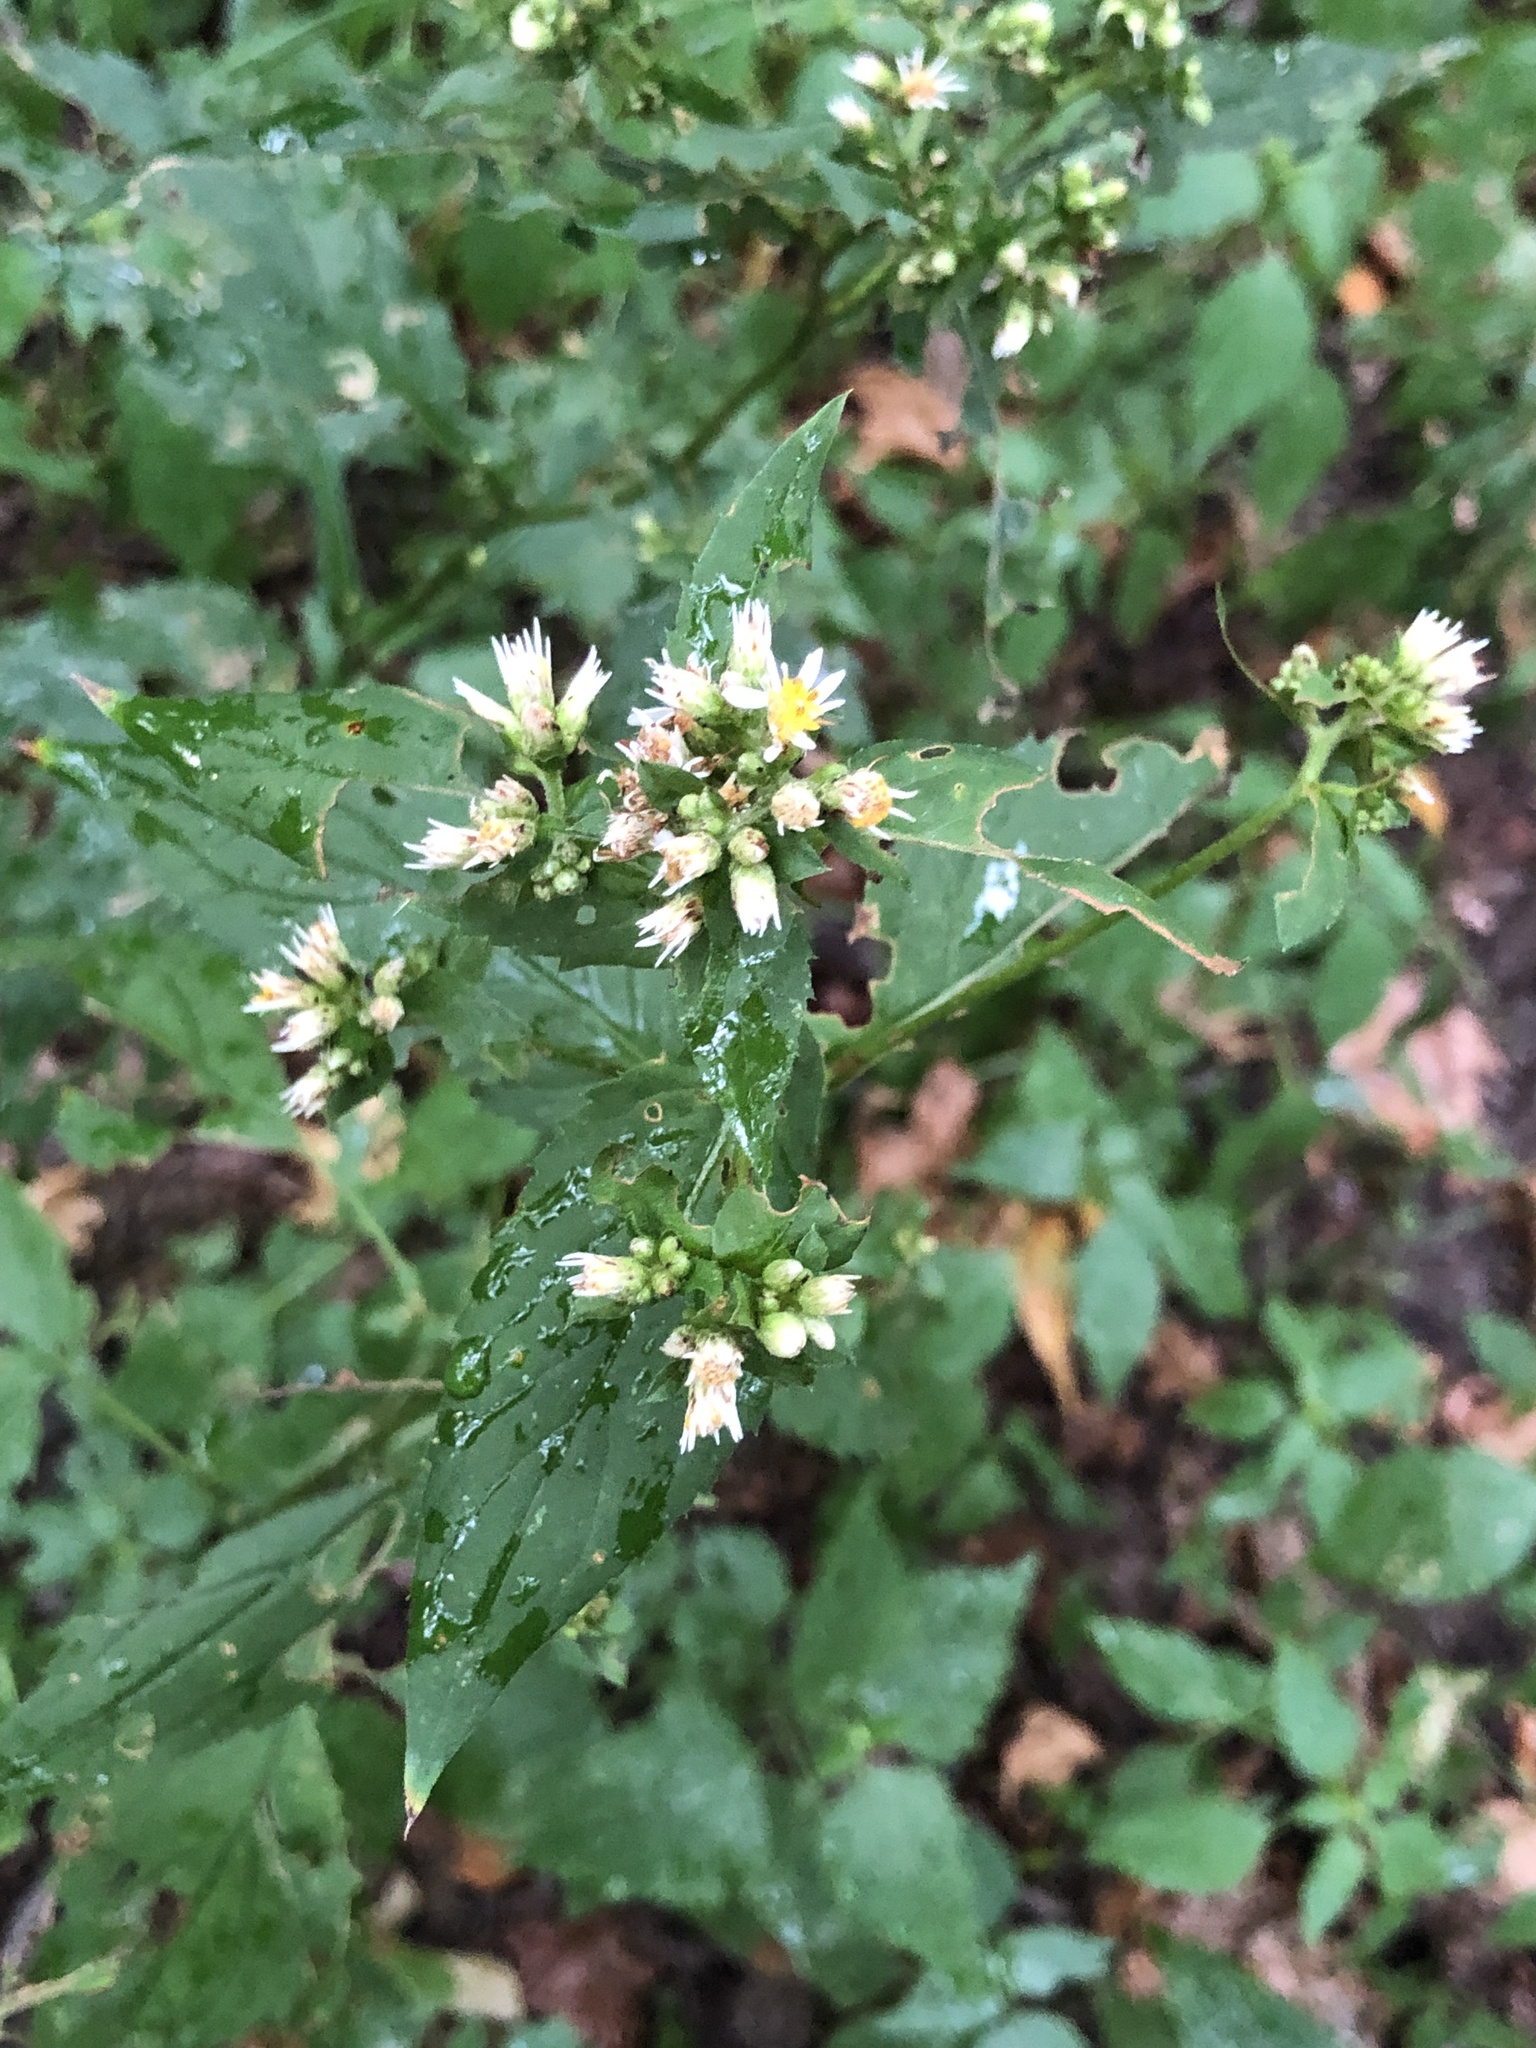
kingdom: Plantae
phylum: Tracheophyta
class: Magnoliopsida
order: Asterales
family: Asteraceae
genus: Eurybia
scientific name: Eurybia divaricata
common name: White wood aster
